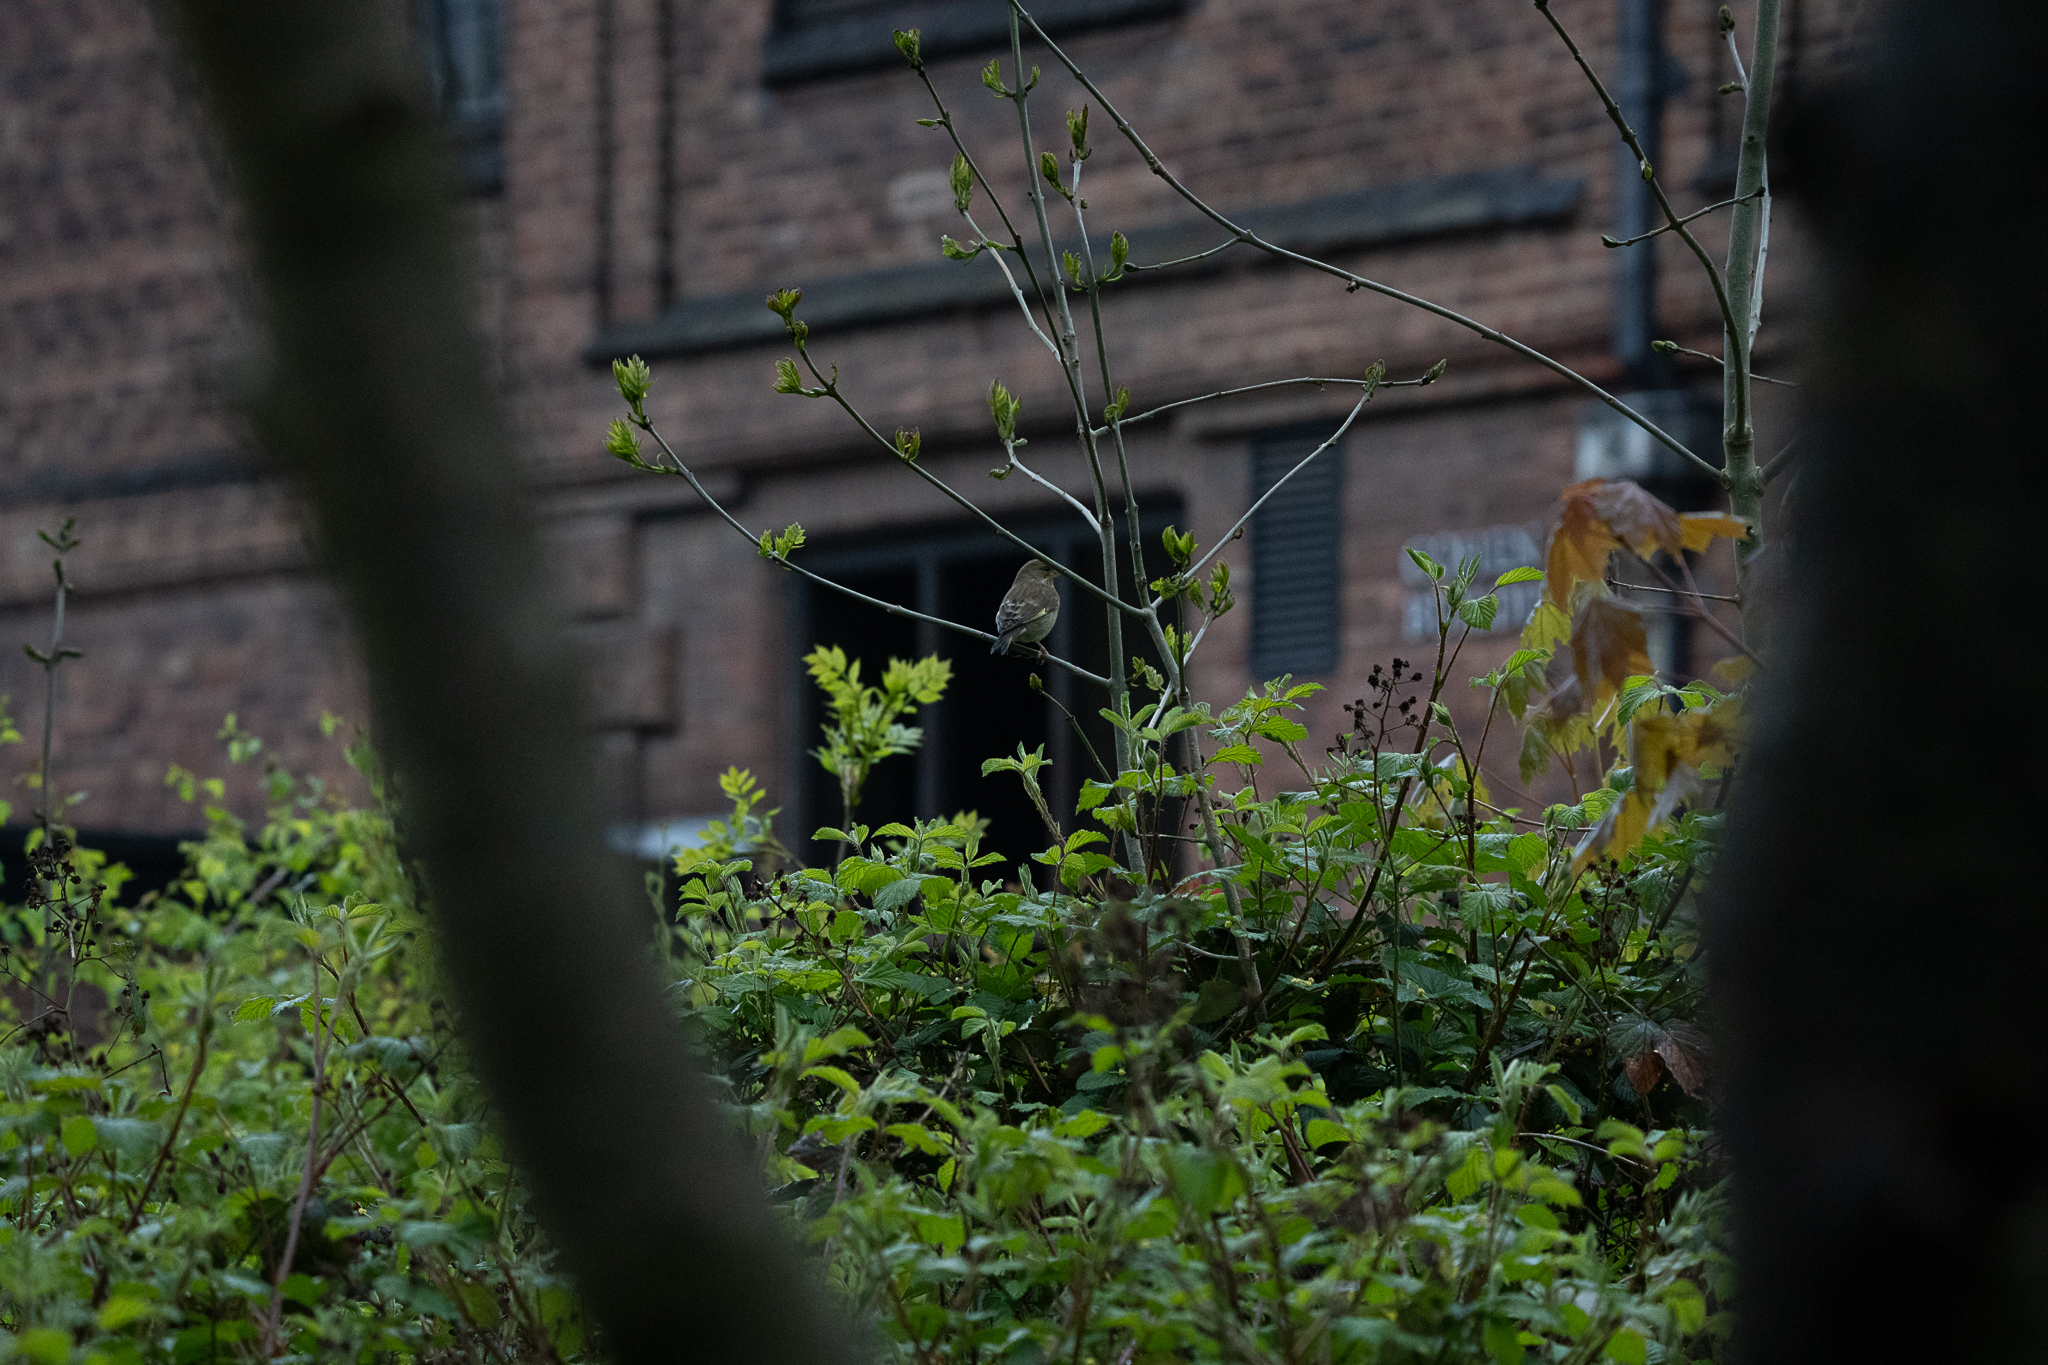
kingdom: Plantae
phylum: Tracheophyta
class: Liliopsida
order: Poales
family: Poaceae
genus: Chloris
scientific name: Chloris chloris
